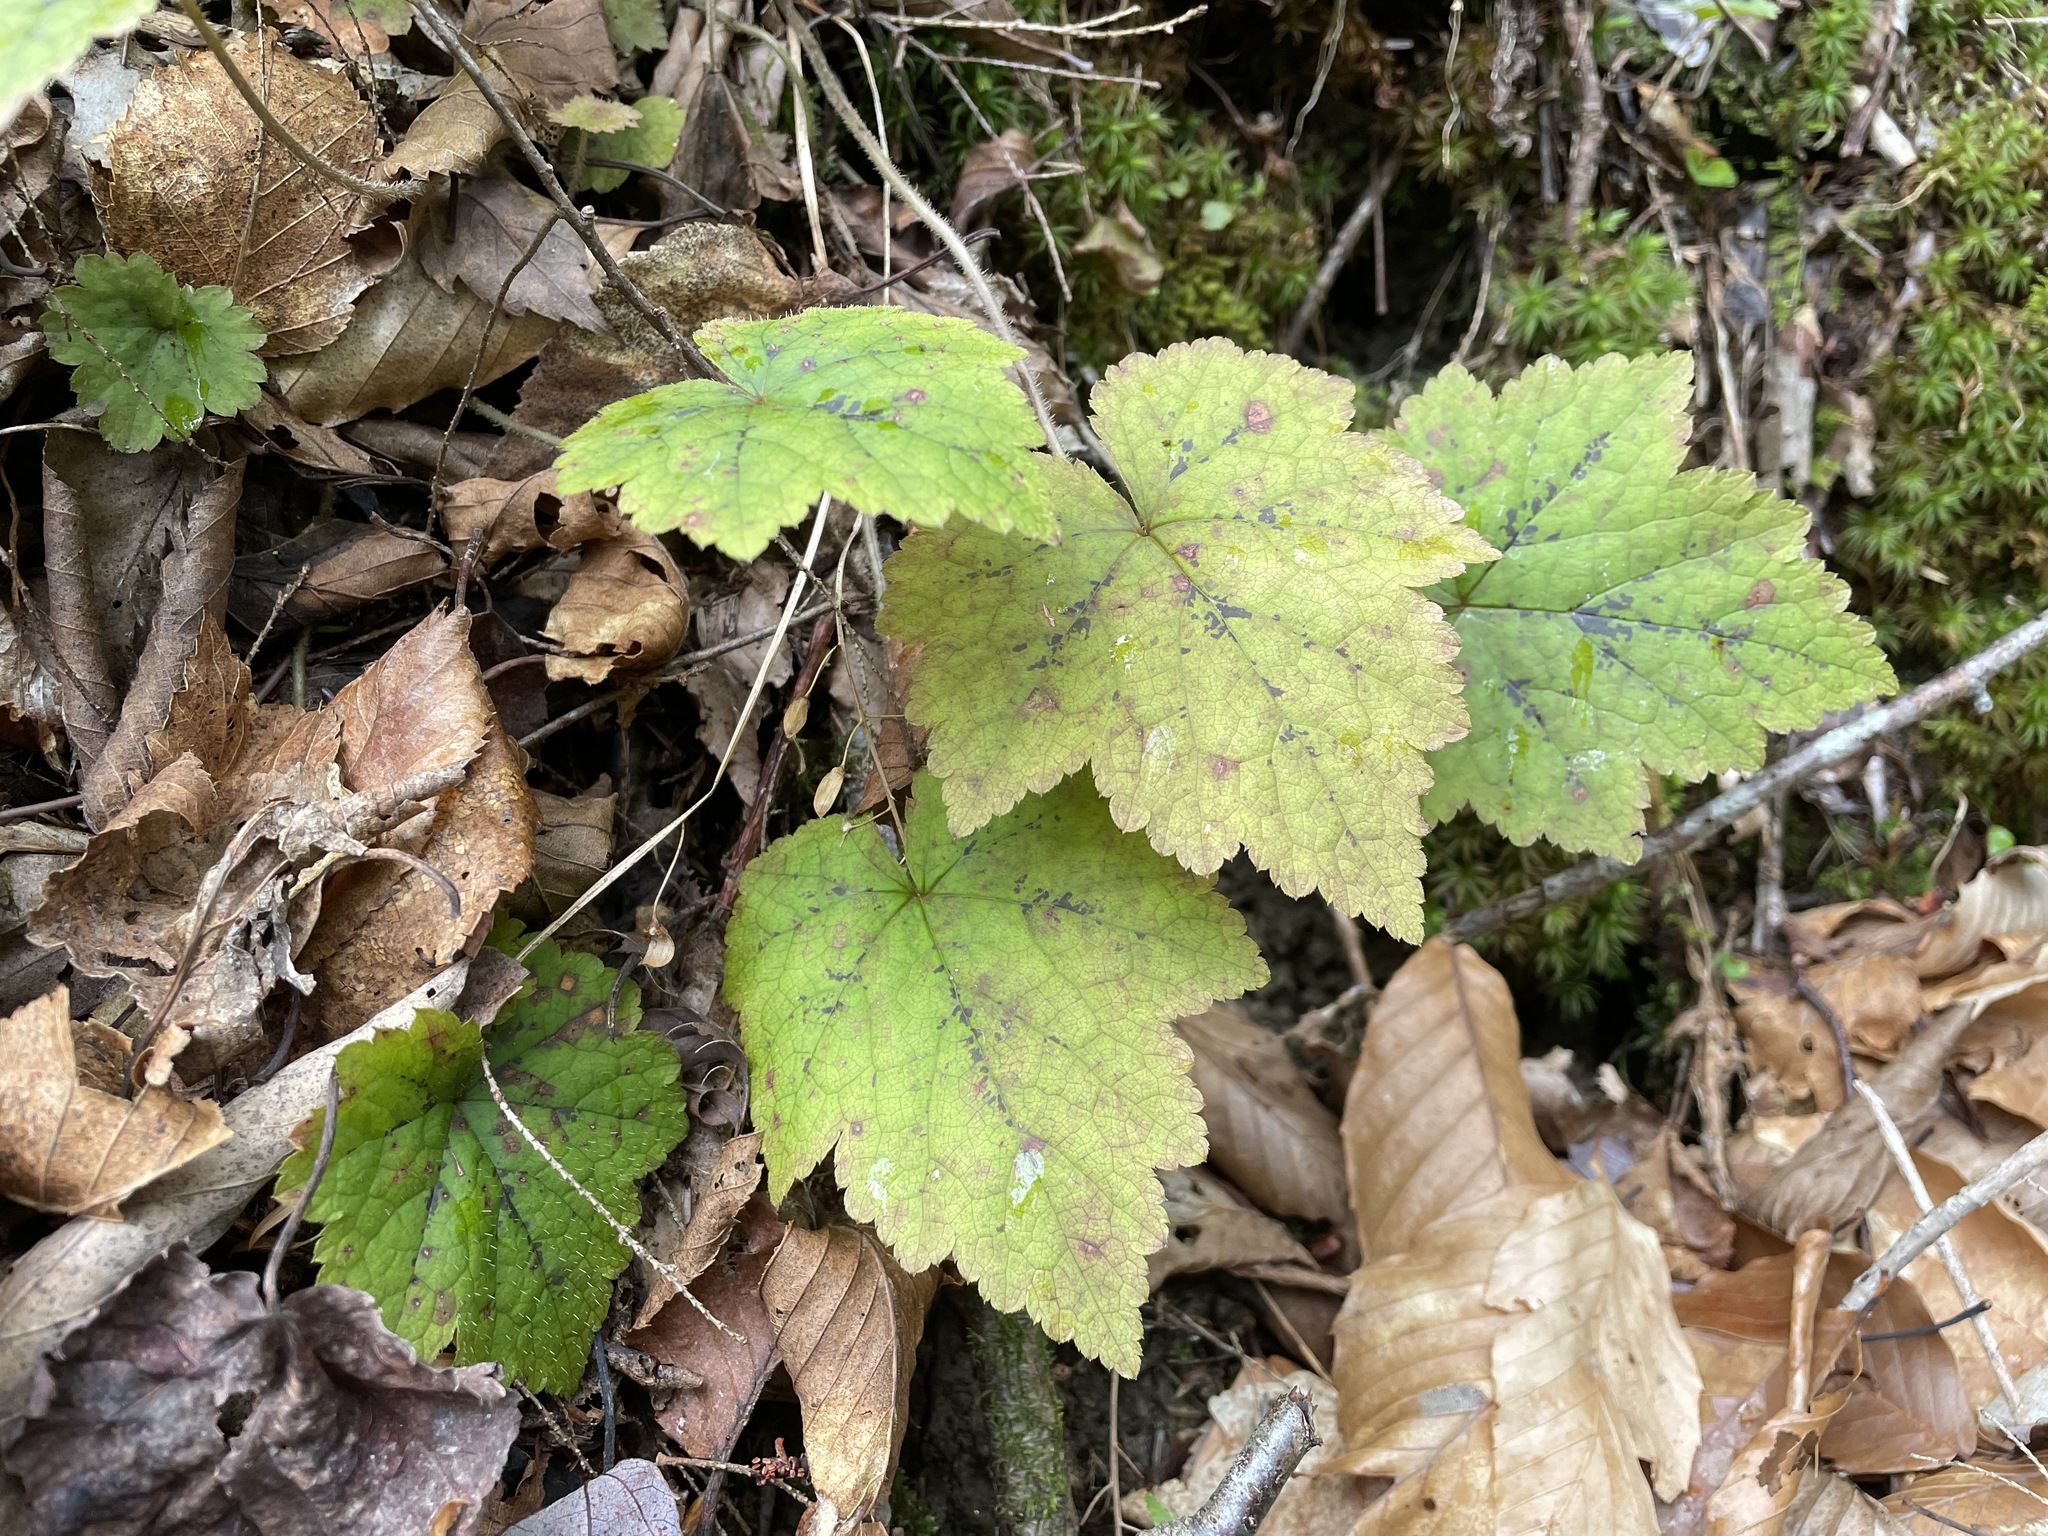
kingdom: Plantae
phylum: Tracheophyta
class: Magnoliopsida
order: Saxifragales
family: Saxifragaceae
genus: Tiarella
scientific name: Tiarella stolonifera
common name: Stoloniferous foamflower
